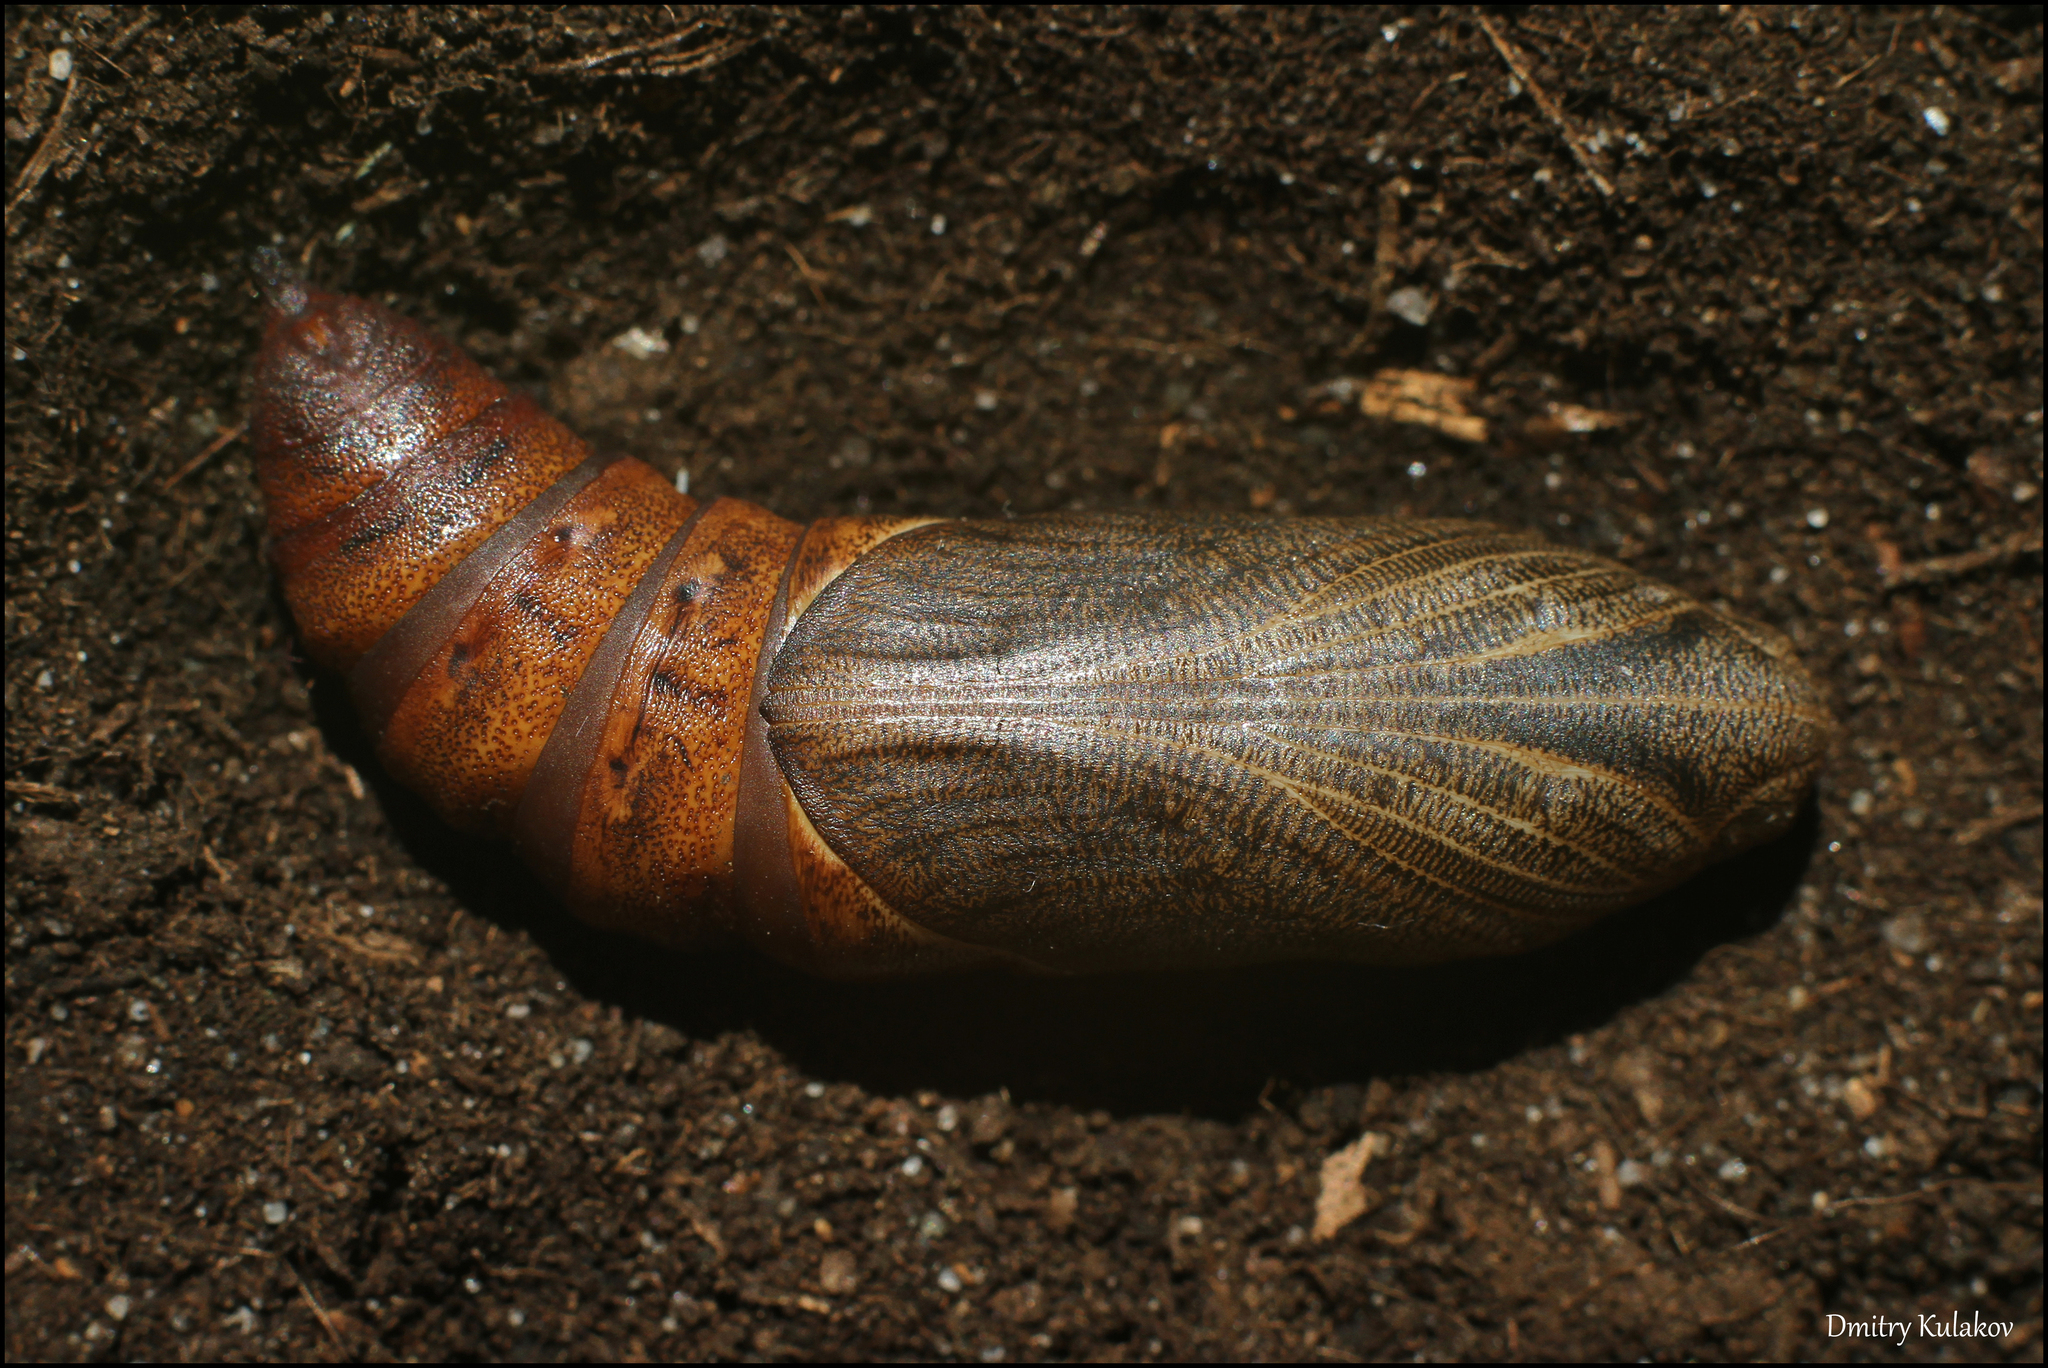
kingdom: Animalia
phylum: Arthropoda
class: Insecta
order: Lepidoptera
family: Sphingidae
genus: Hyles
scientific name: Hyles gallii
